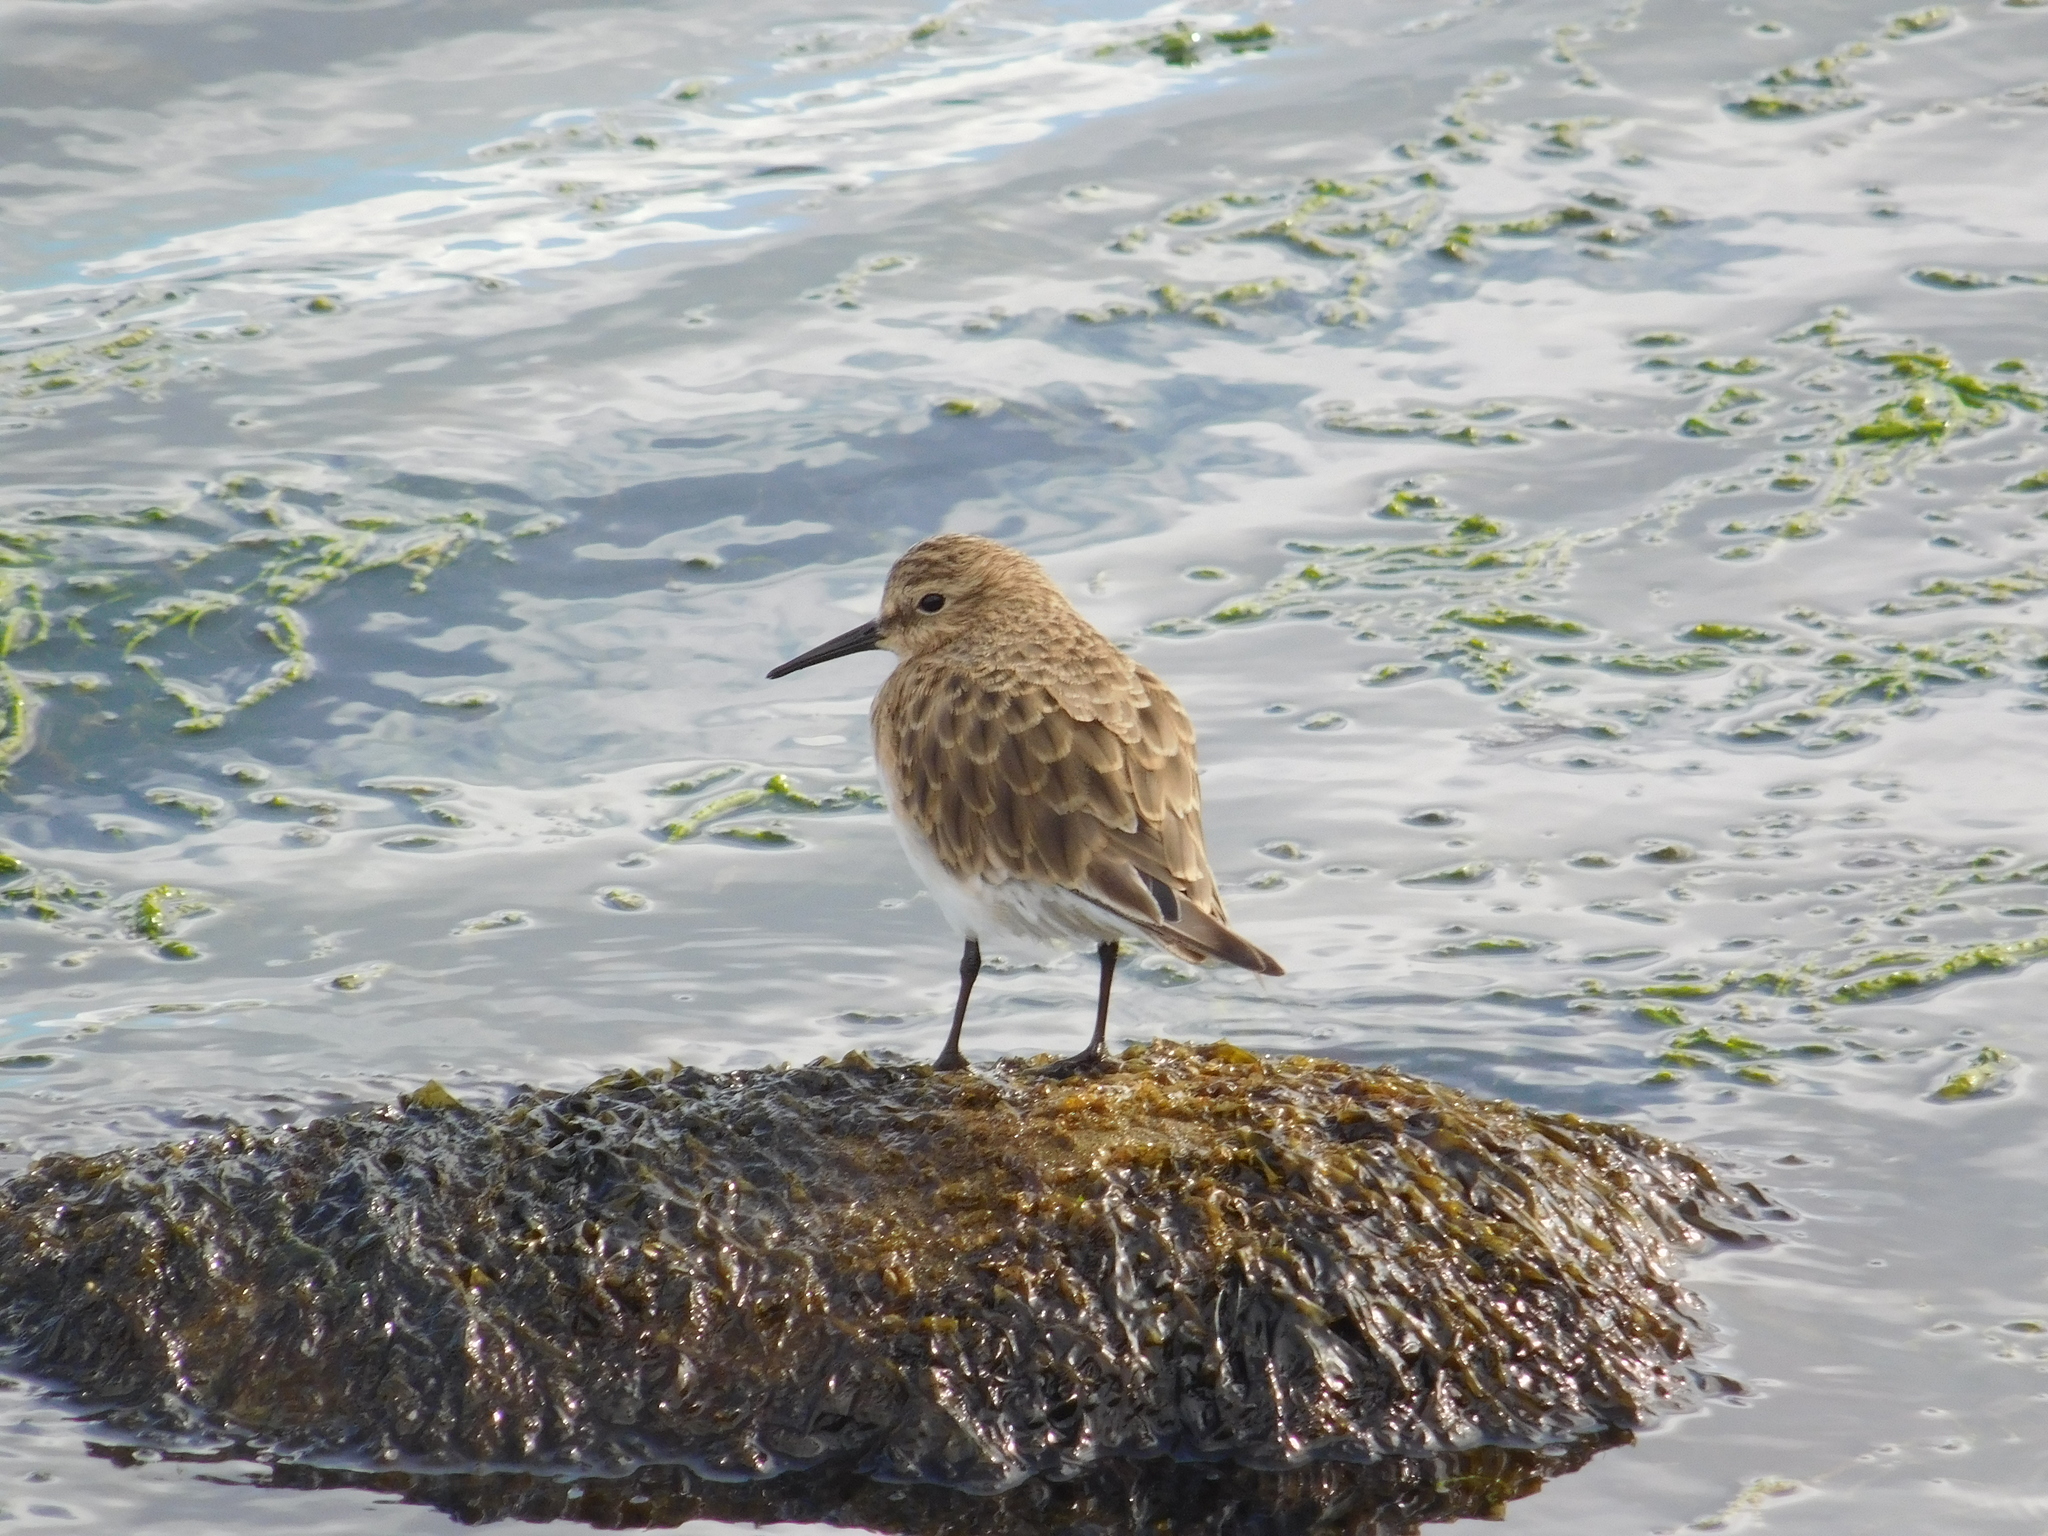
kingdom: Animalia
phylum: Chordata
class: Aves
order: Charadriiformes
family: Scolopacidae
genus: Calidris
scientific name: Calidris bairdii
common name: Baird's sandpiper
